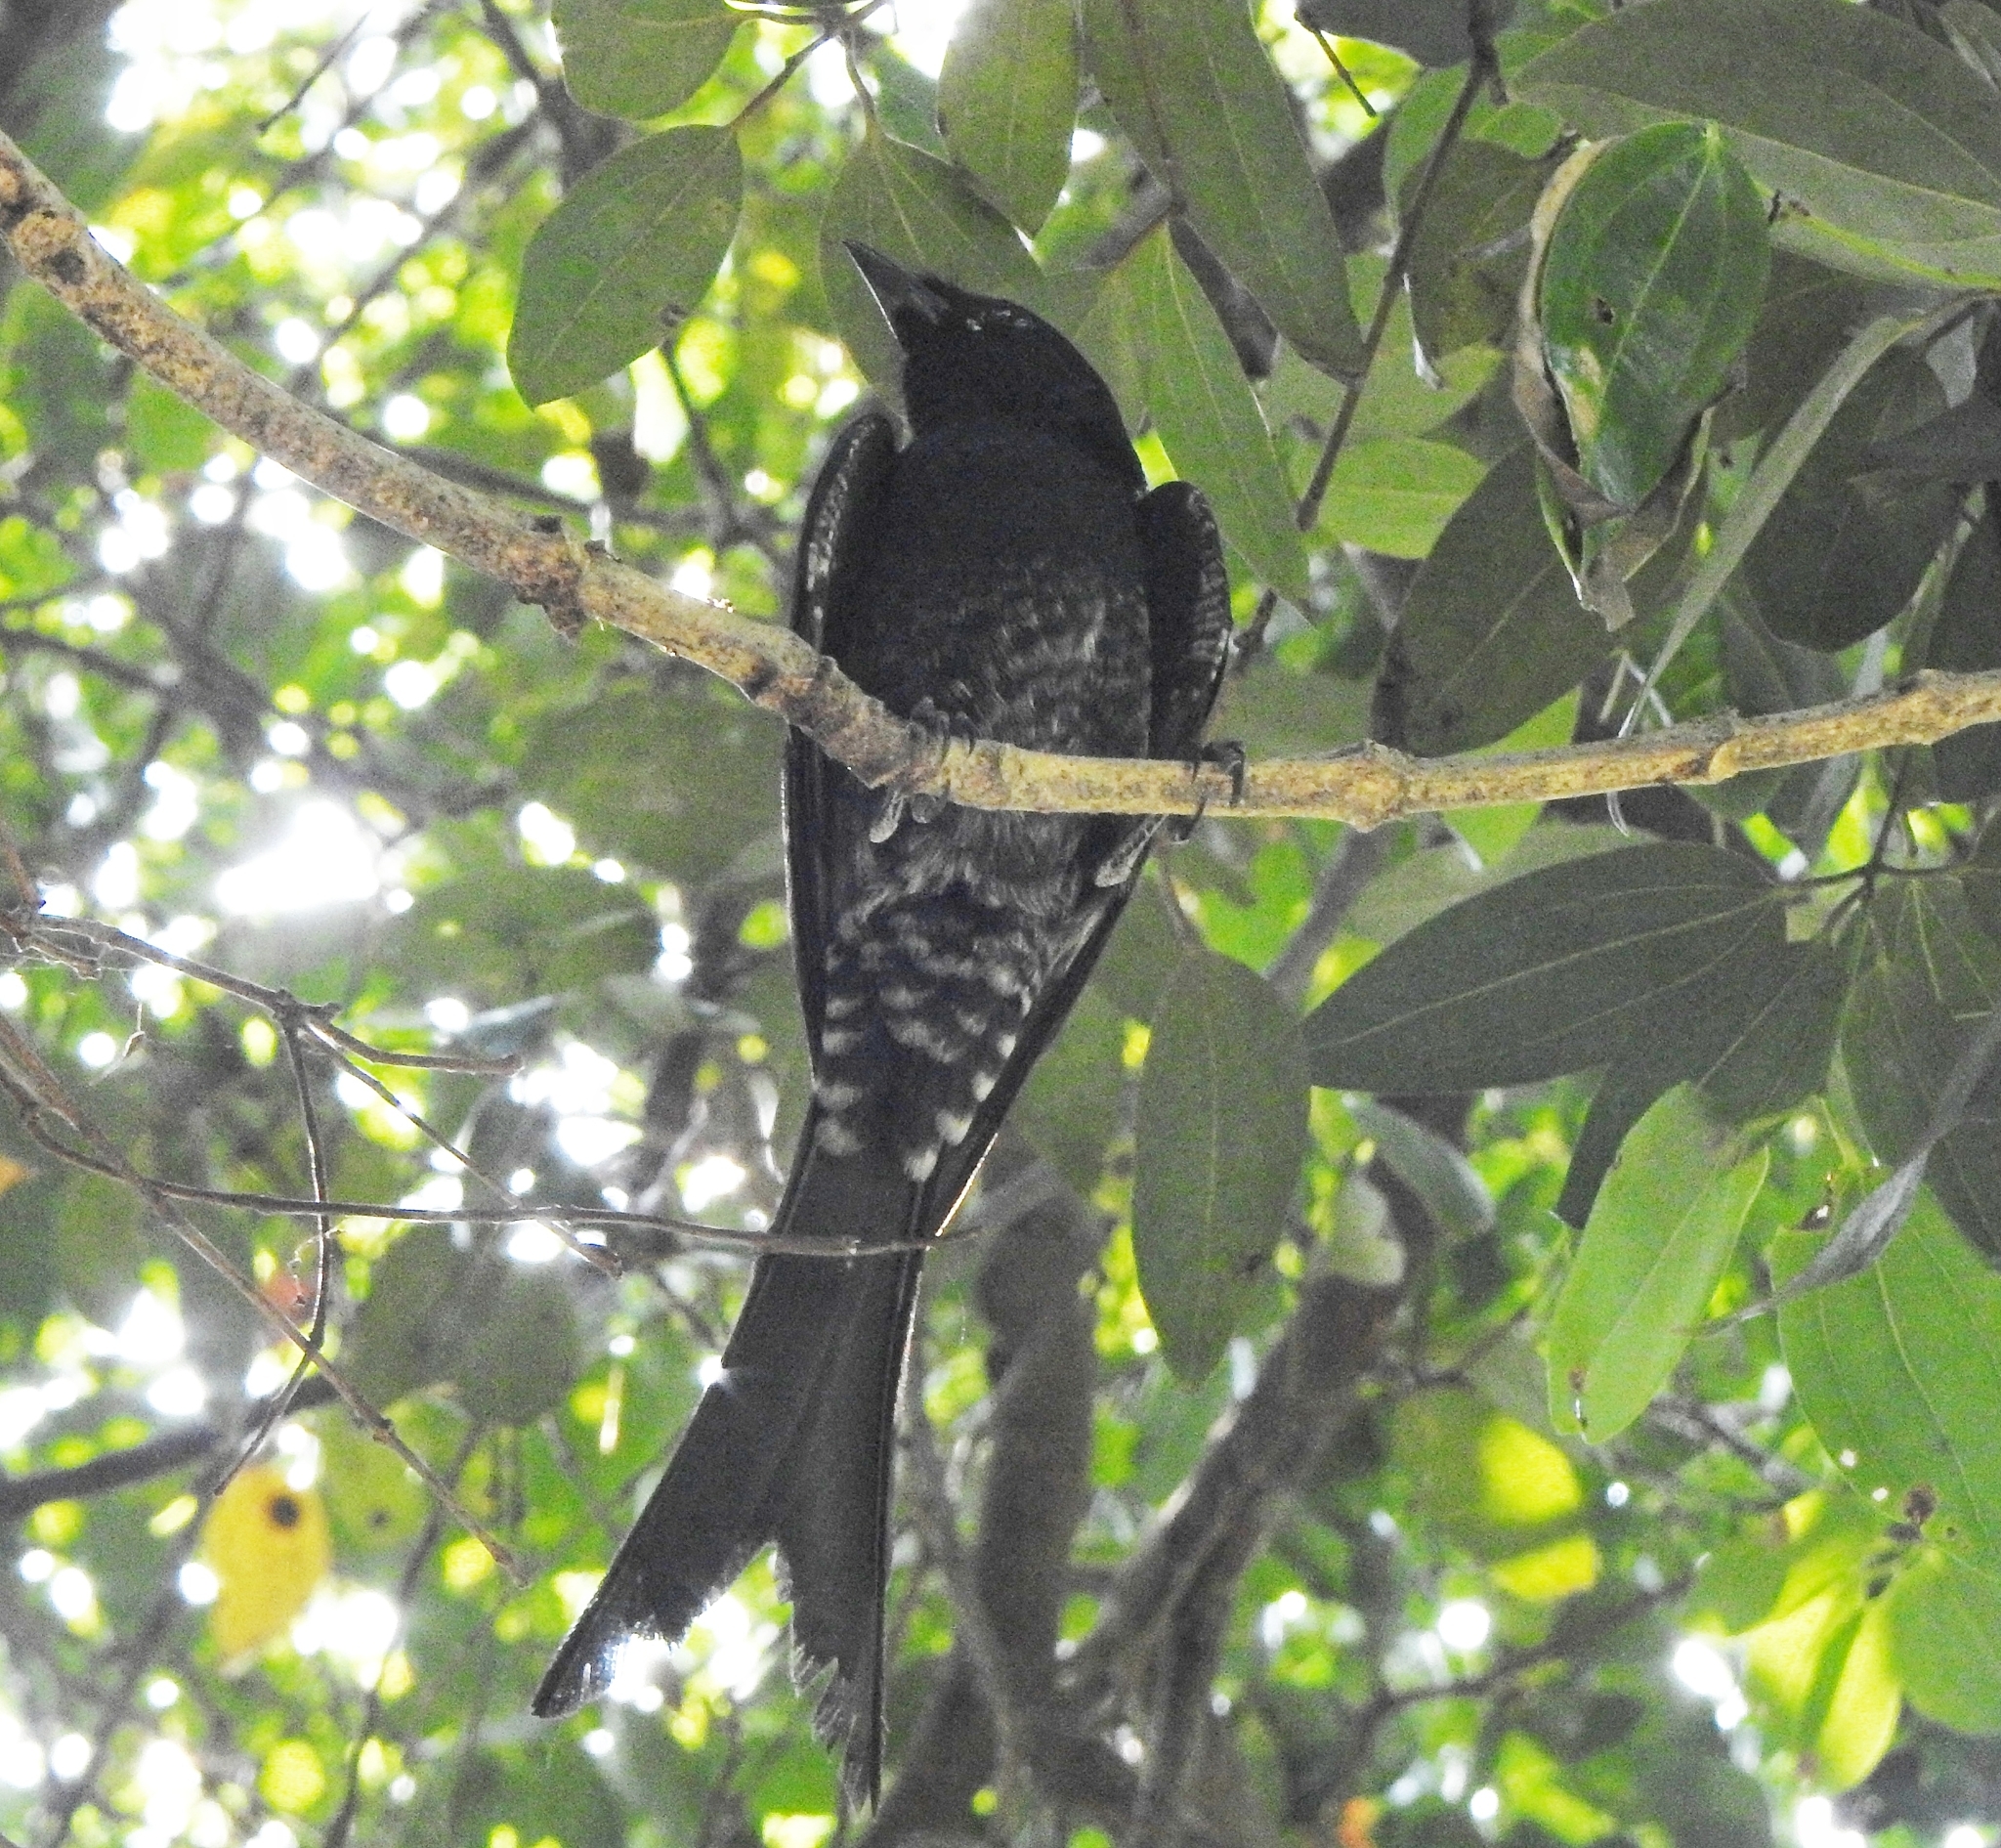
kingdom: Animalia
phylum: Chordata
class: Aves
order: Passeriformes
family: Dicruridae
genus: Dicrurus
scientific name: Dicrurus macrocercus
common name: Black drongo
